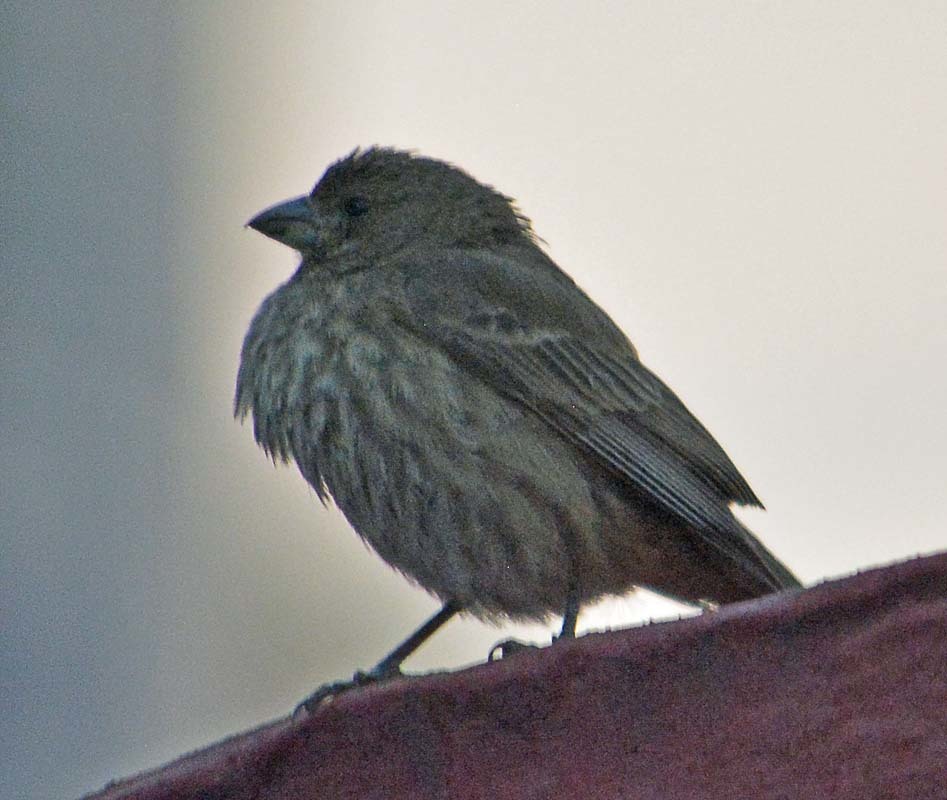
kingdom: Animalia
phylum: Chordata
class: Aves
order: Passeriformes
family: Fringillidae
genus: Haemorhous
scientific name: Haemorhous mexicanus
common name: House finch
